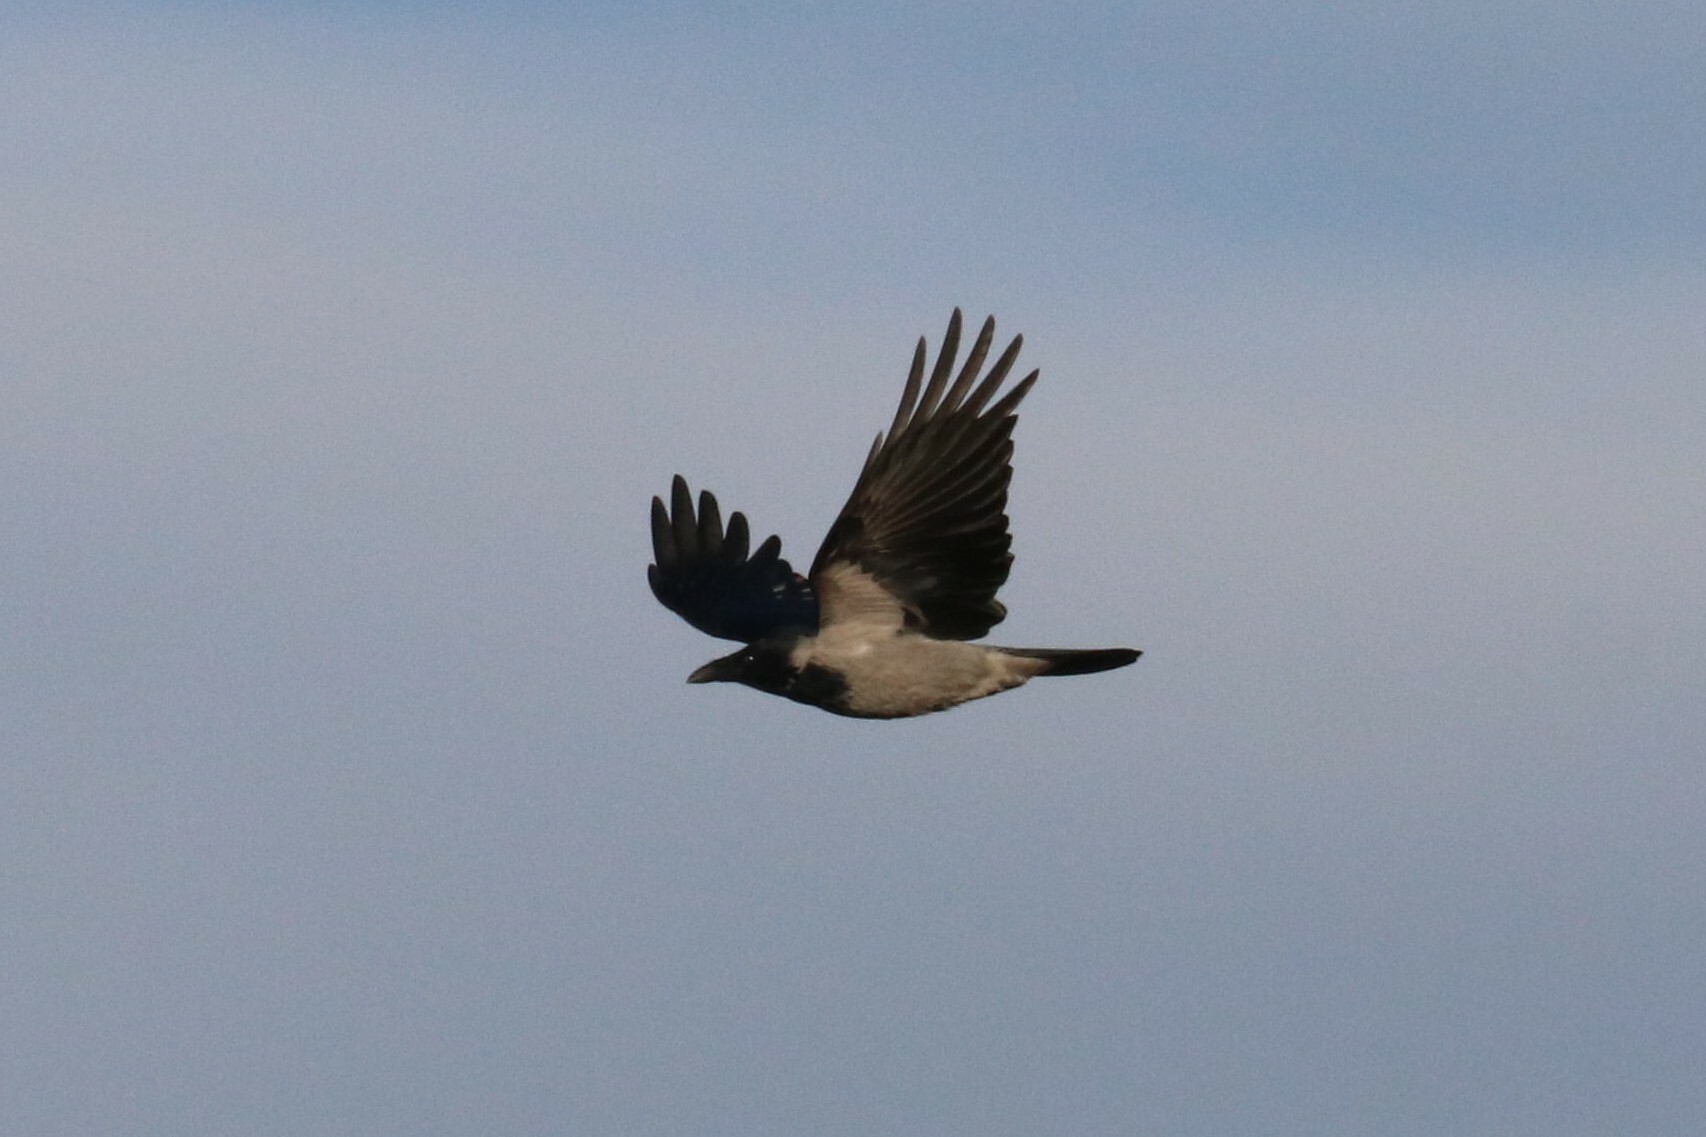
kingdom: Animalia
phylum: Chordata
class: Aves
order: Passeriformes
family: Corvidae
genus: Corvus
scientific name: Corvus cornix
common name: Hooded crow
